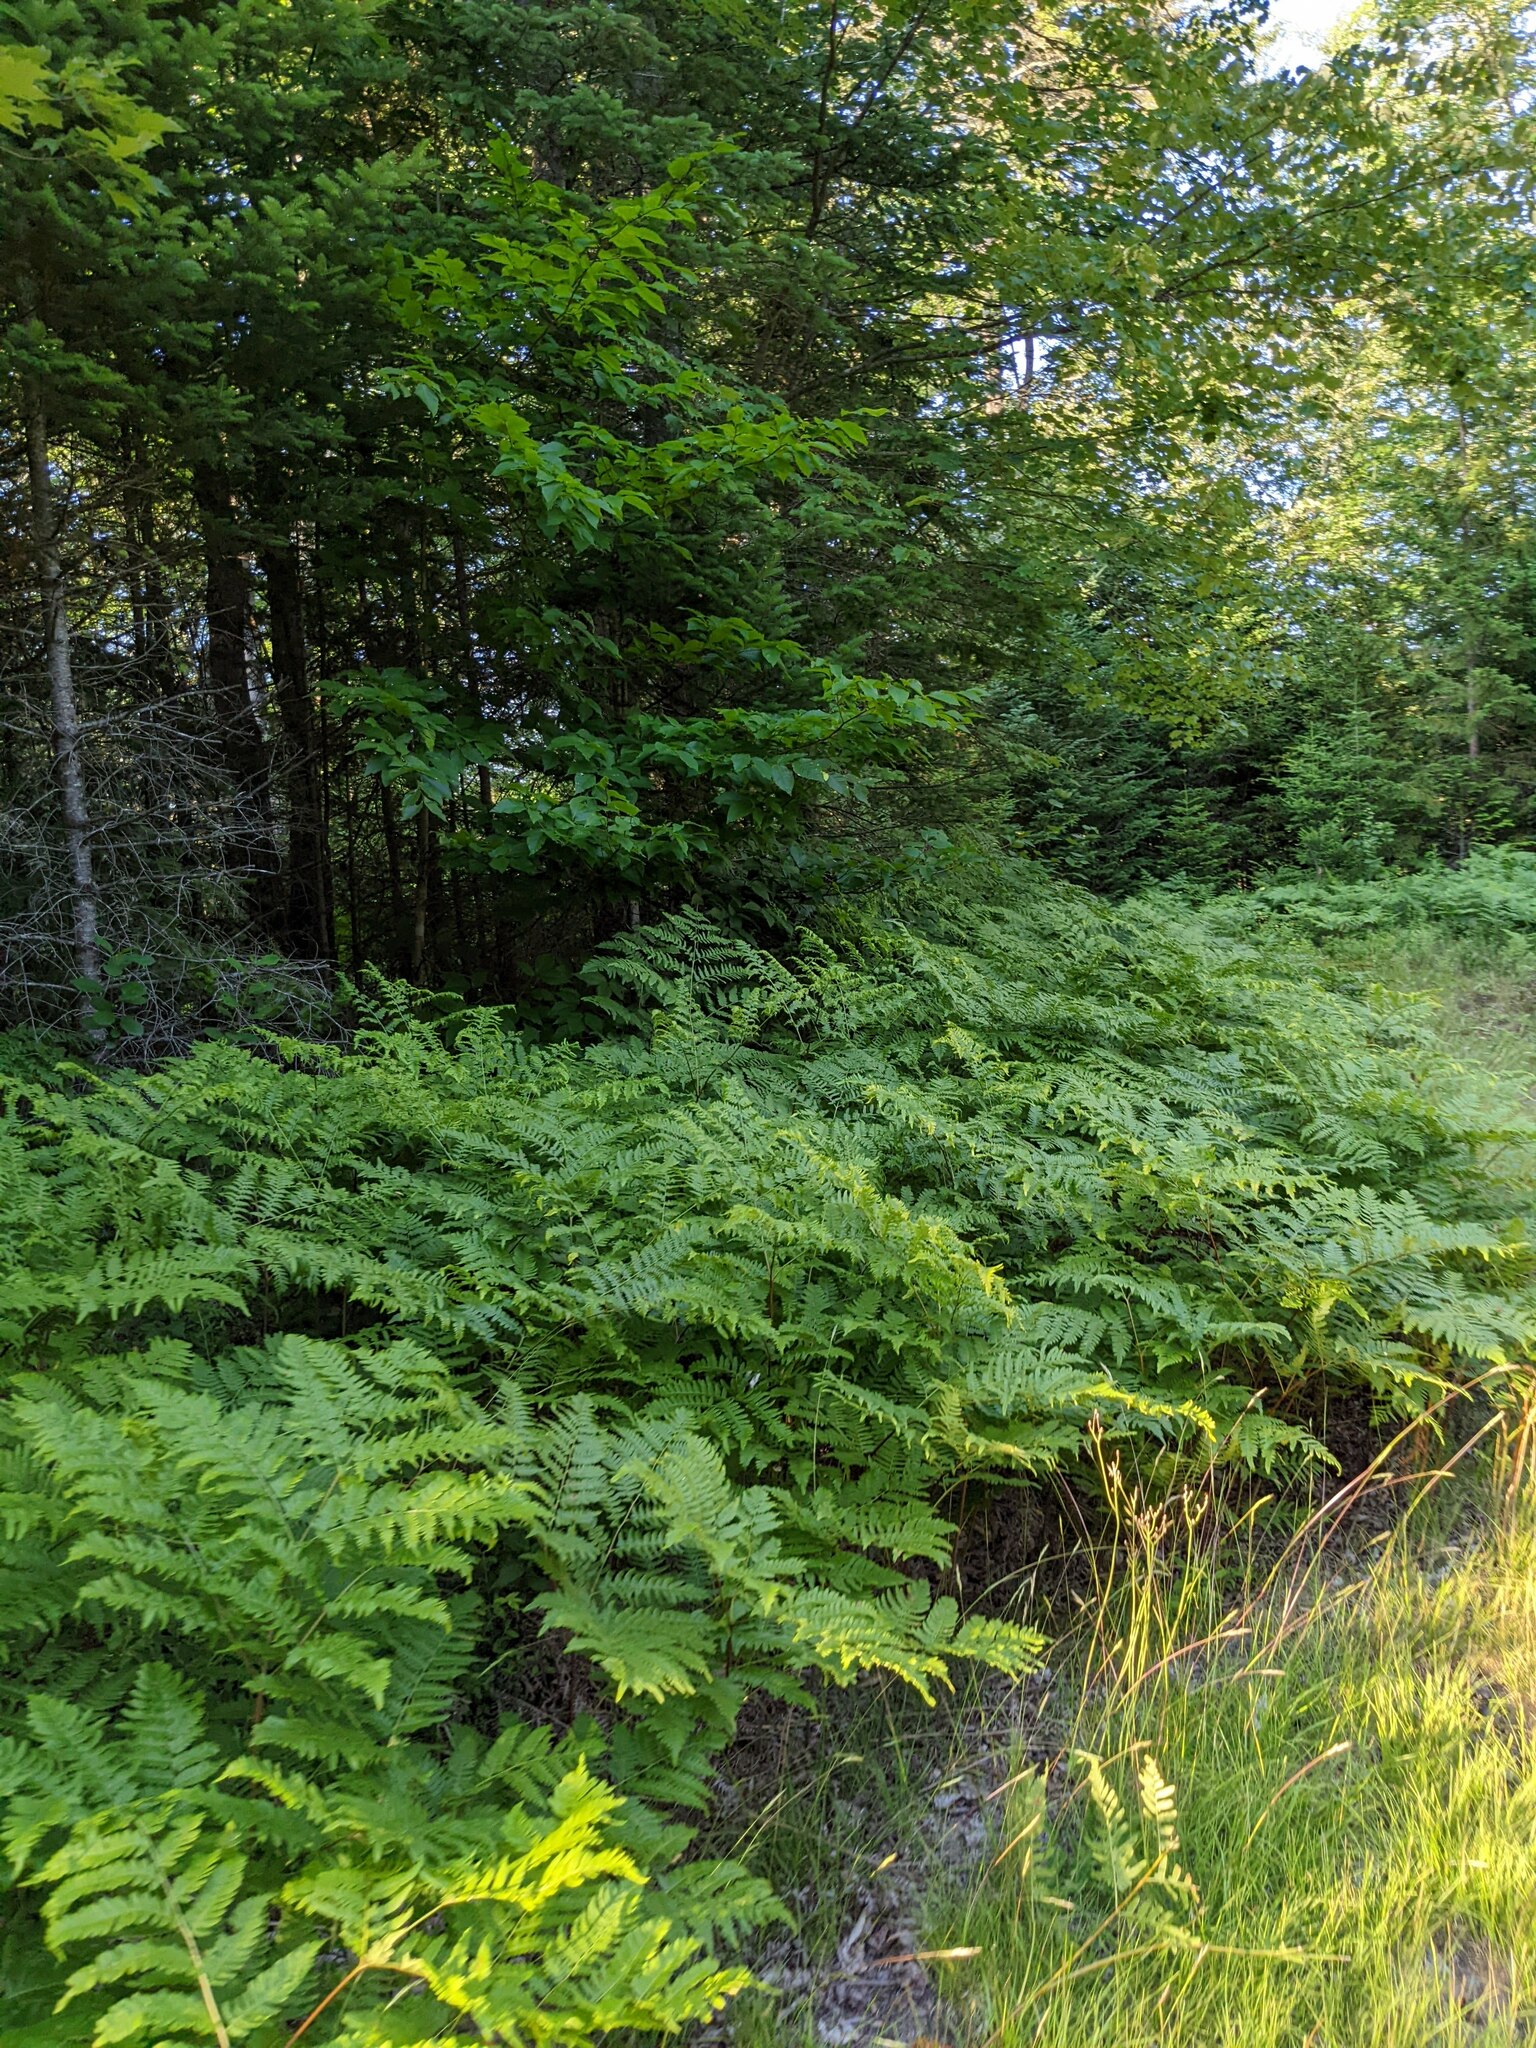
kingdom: Plantae
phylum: Tracheophyta
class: Polypodiopsida
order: Polypodiales
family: Dennstaedtiaceae
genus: Pteridium
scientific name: Pteridium aquilinum
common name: Bracken
